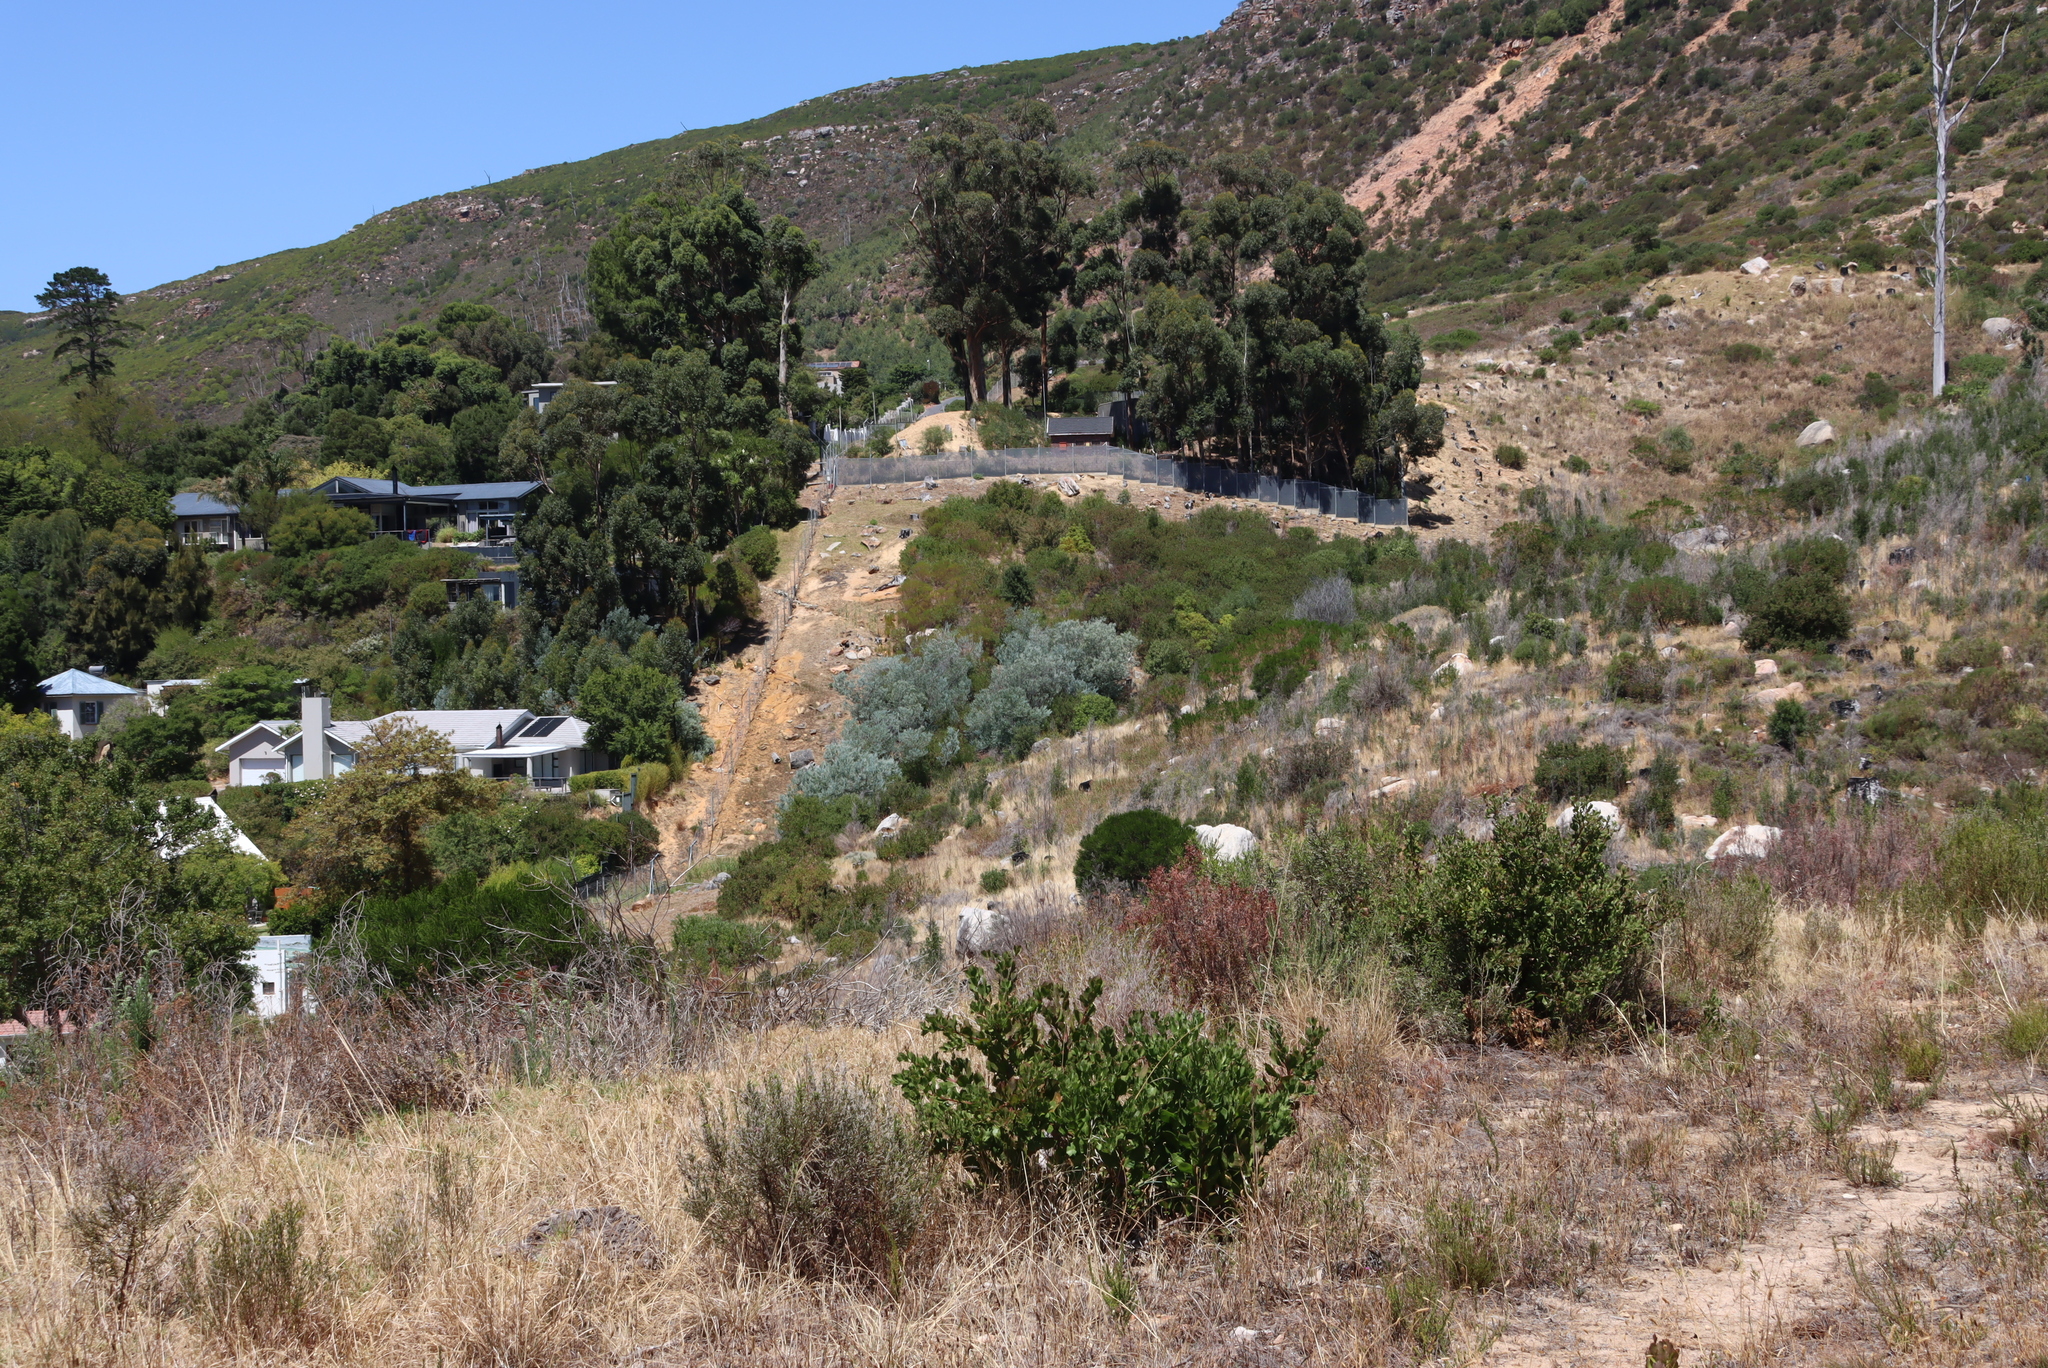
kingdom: Plantae
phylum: Tracheophyta
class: Magnoliopsida
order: Asterales
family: Asteraceae
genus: Osteospermum
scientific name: Osteospermum moniliferum
